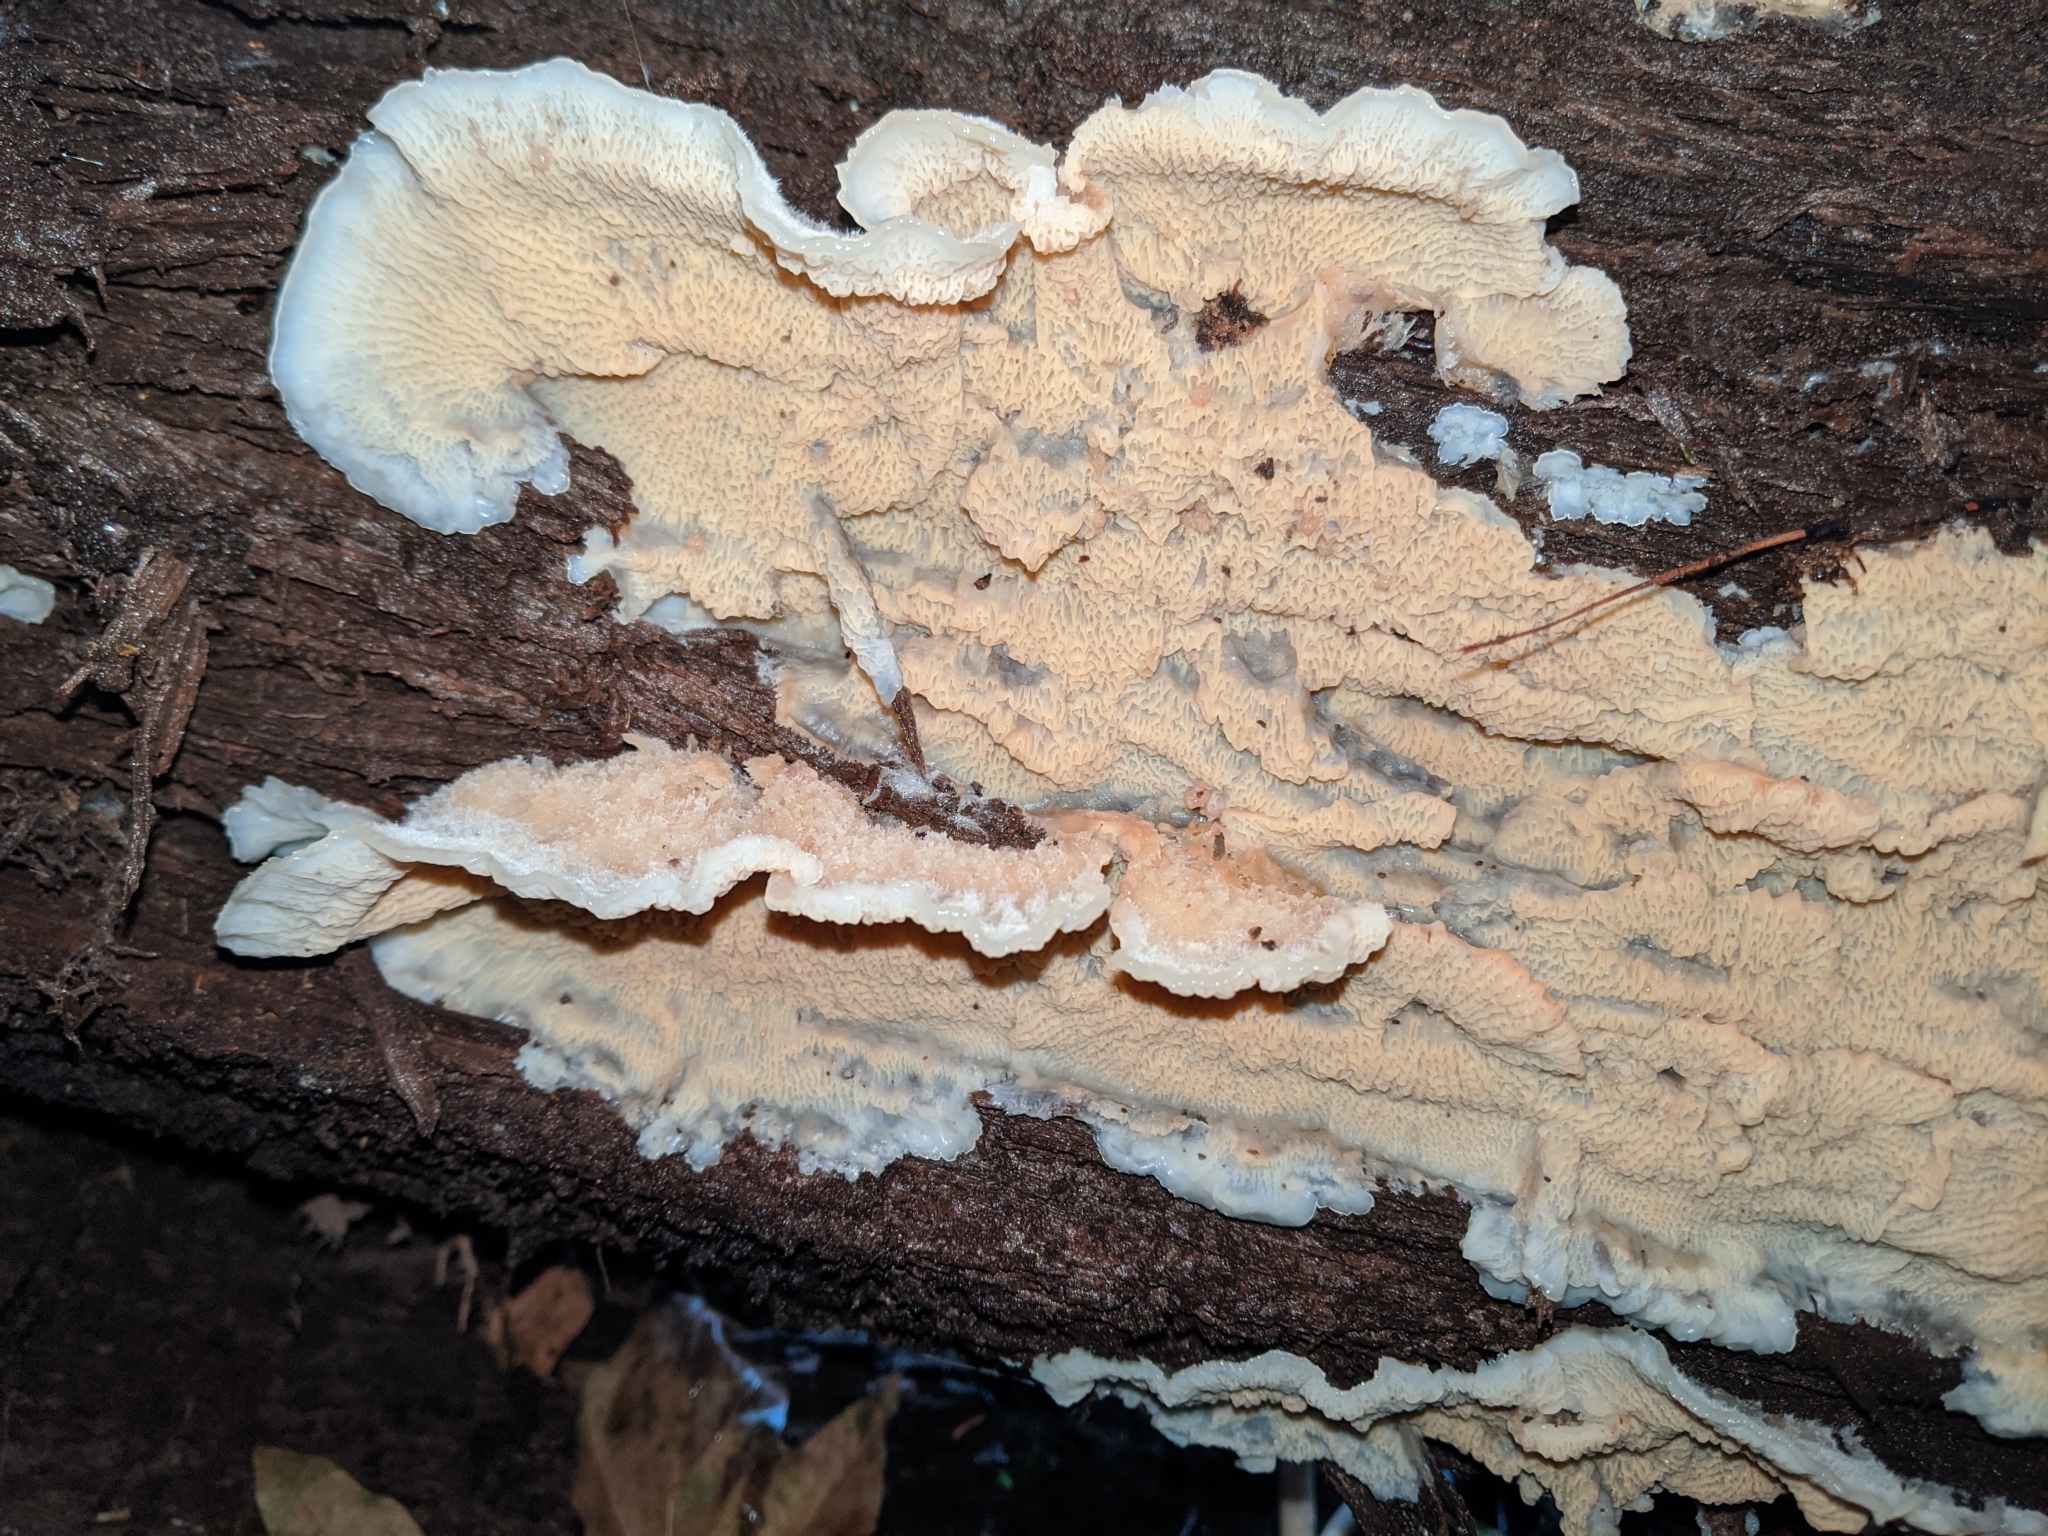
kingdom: Fungi
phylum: Basidiomycota
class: Agaricomycetes
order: Polyporales
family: Meruliaceae
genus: Phlebia
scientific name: Phlebia tremellosa
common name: Jelly rot
